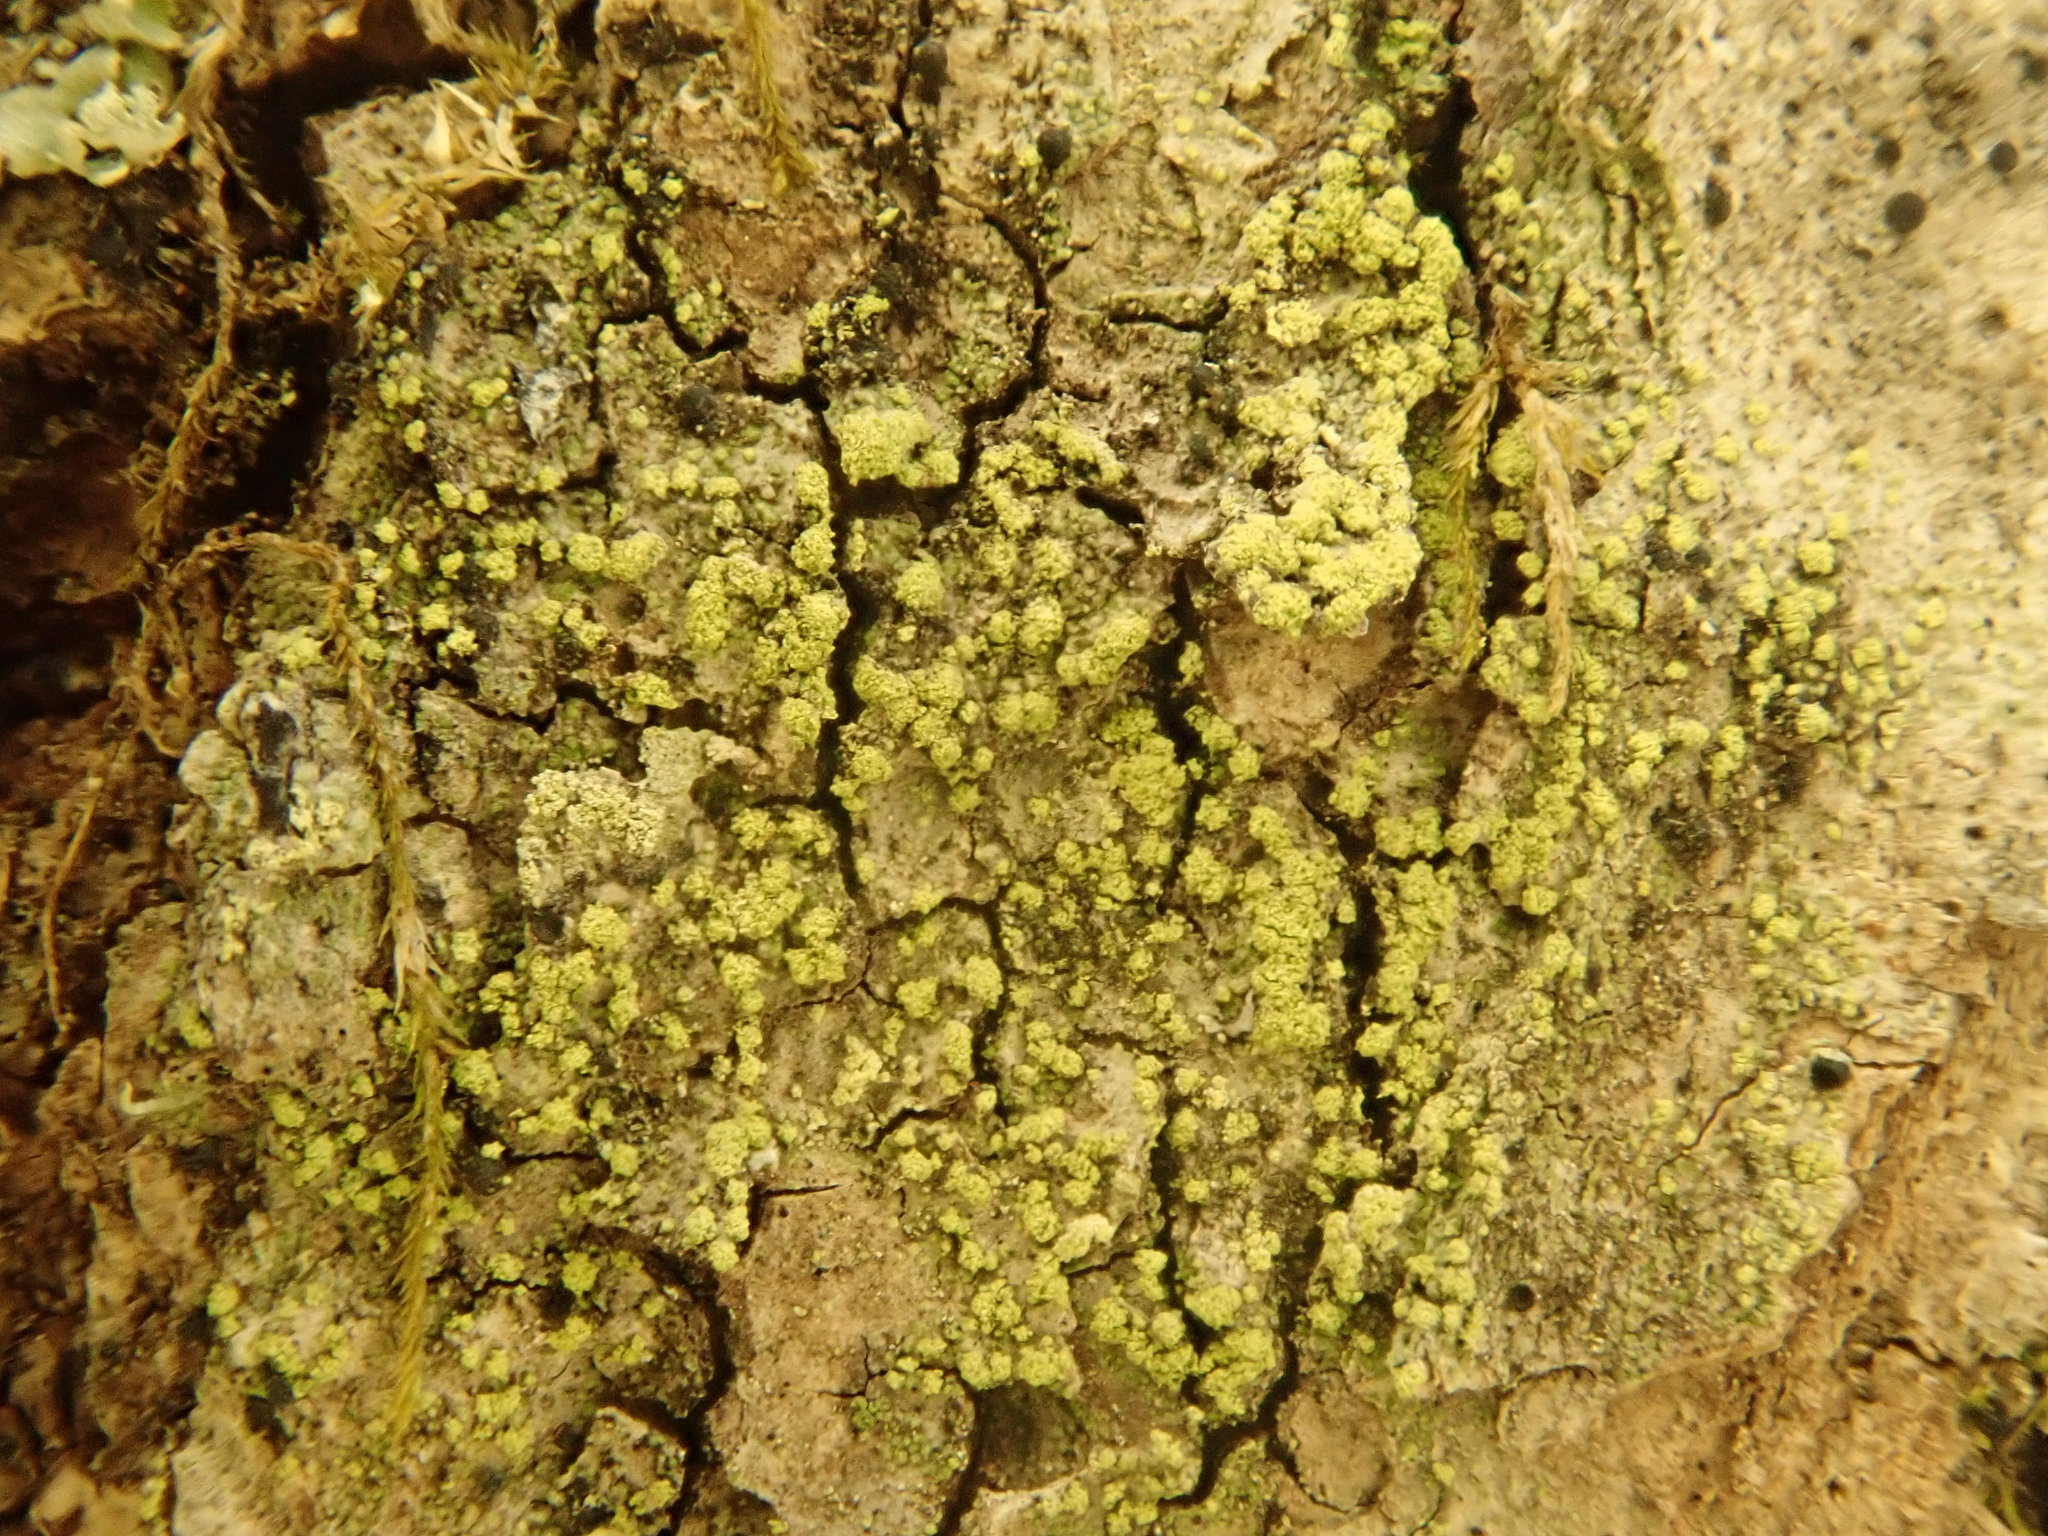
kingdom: Fungi
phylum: Ascomycota
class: Lecanoromycetes
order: Lecanorales
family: Ramalinaceae
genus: Lecania
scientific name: Lecania croatica
